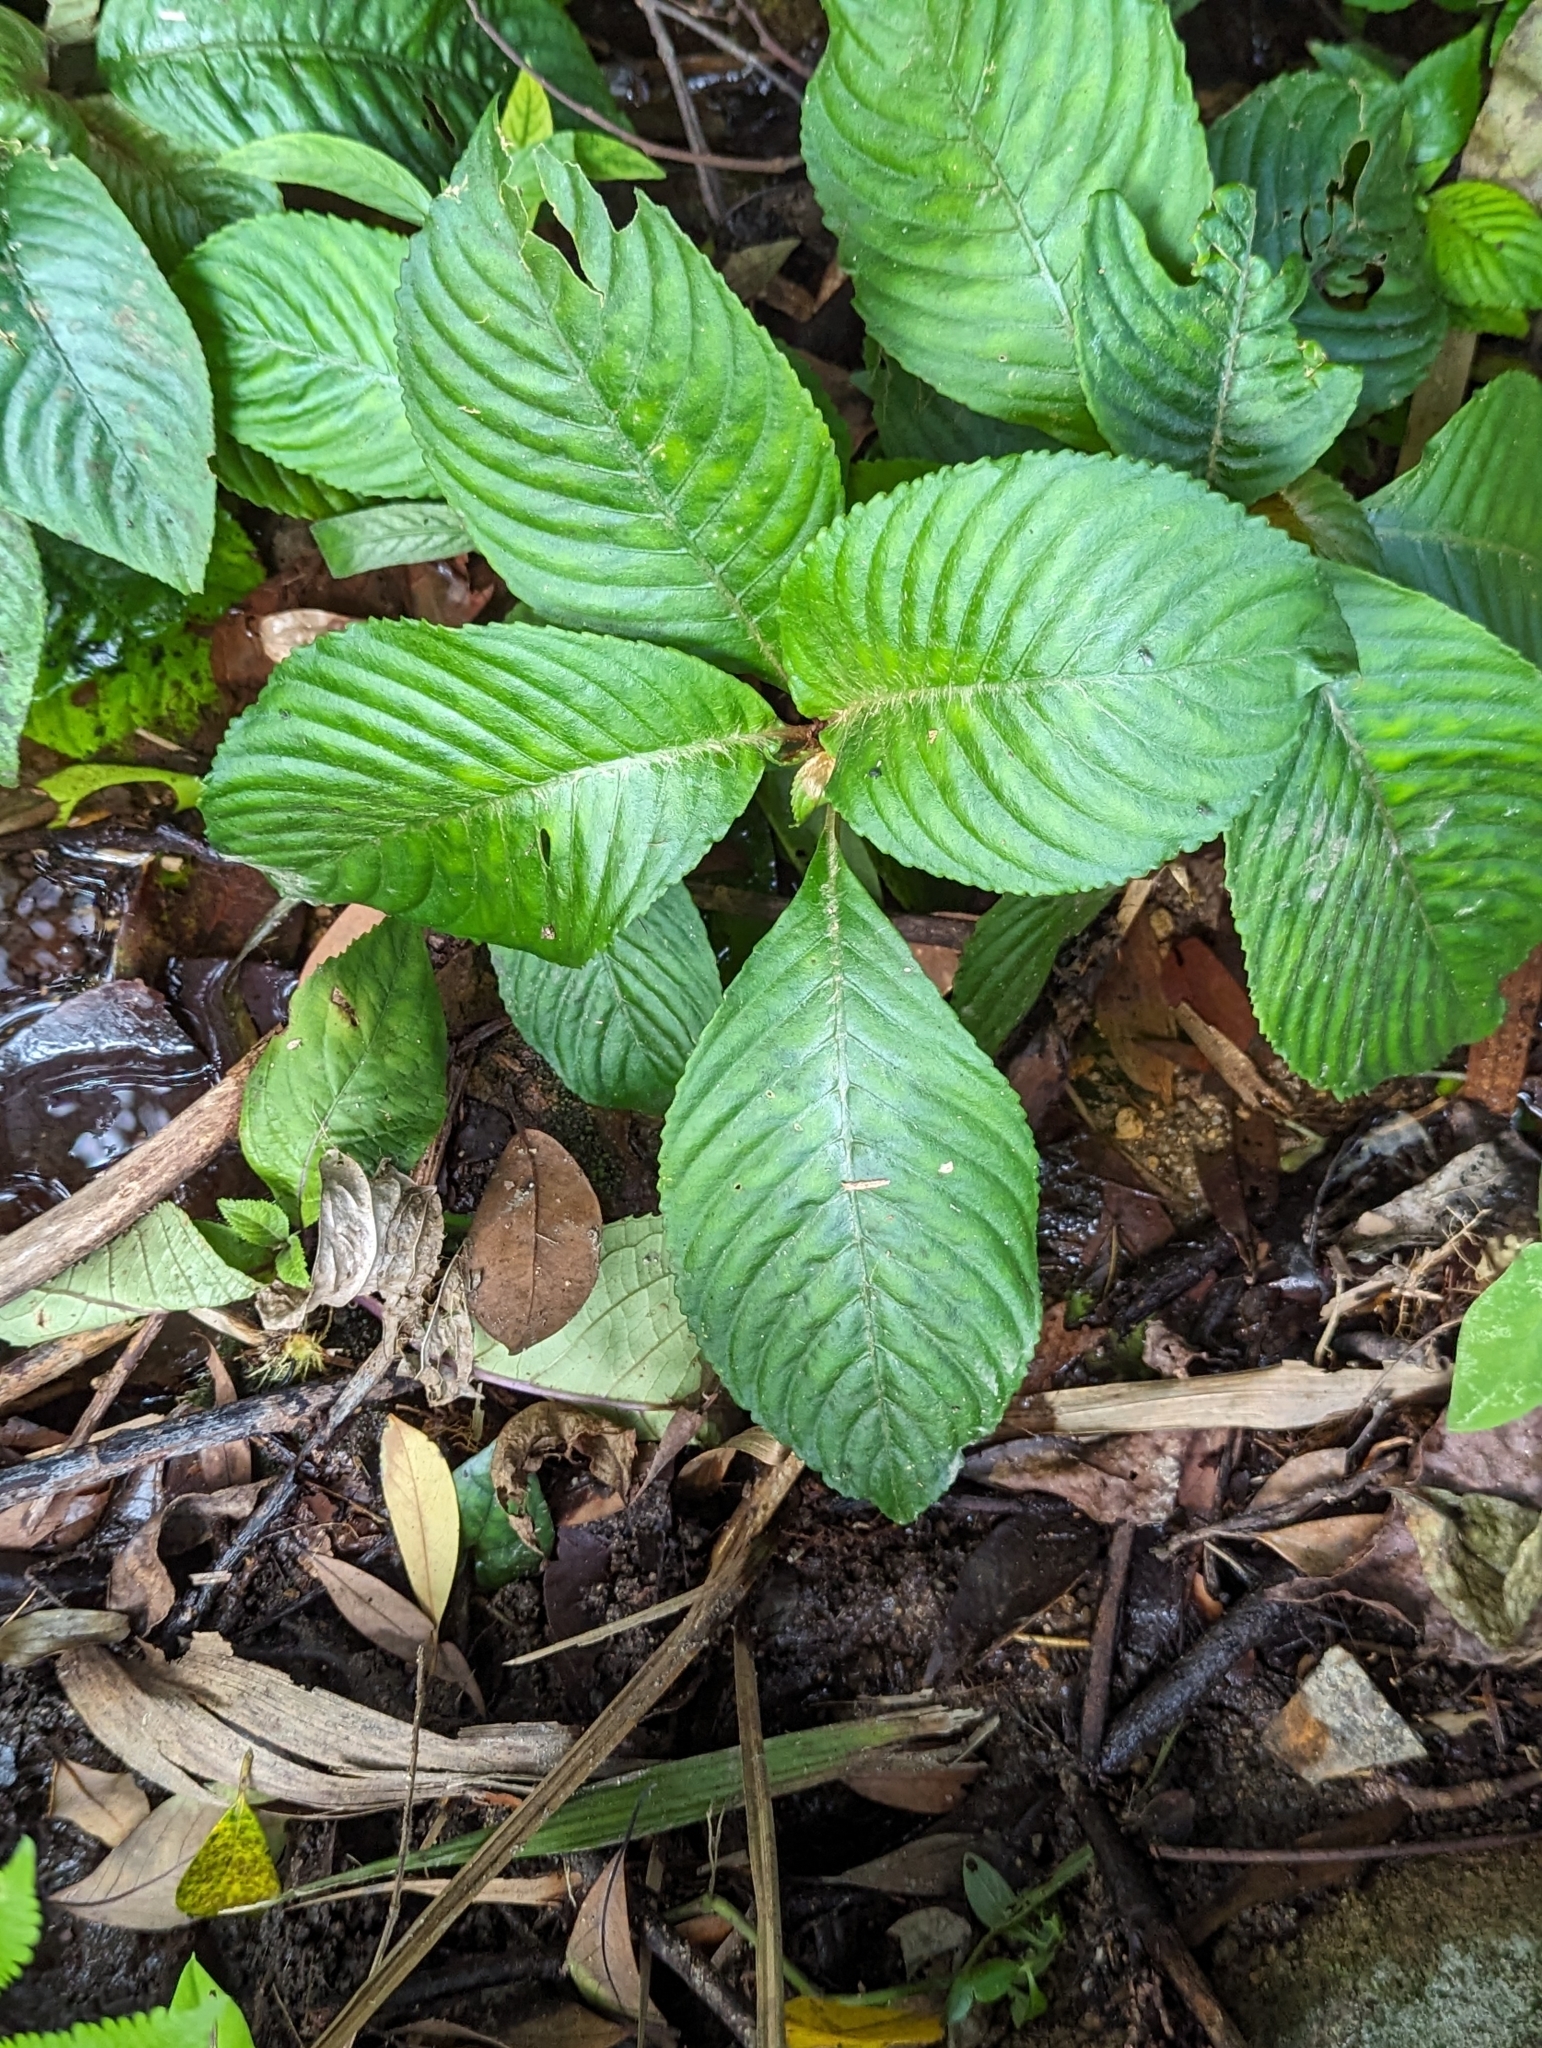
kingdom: Plantae
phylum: Tracheophyta
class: Magnoliopsida
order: Lamiales
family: Gesneriaceae
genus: Rhynchotechum
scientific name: Rhynchotechum ellipticum
